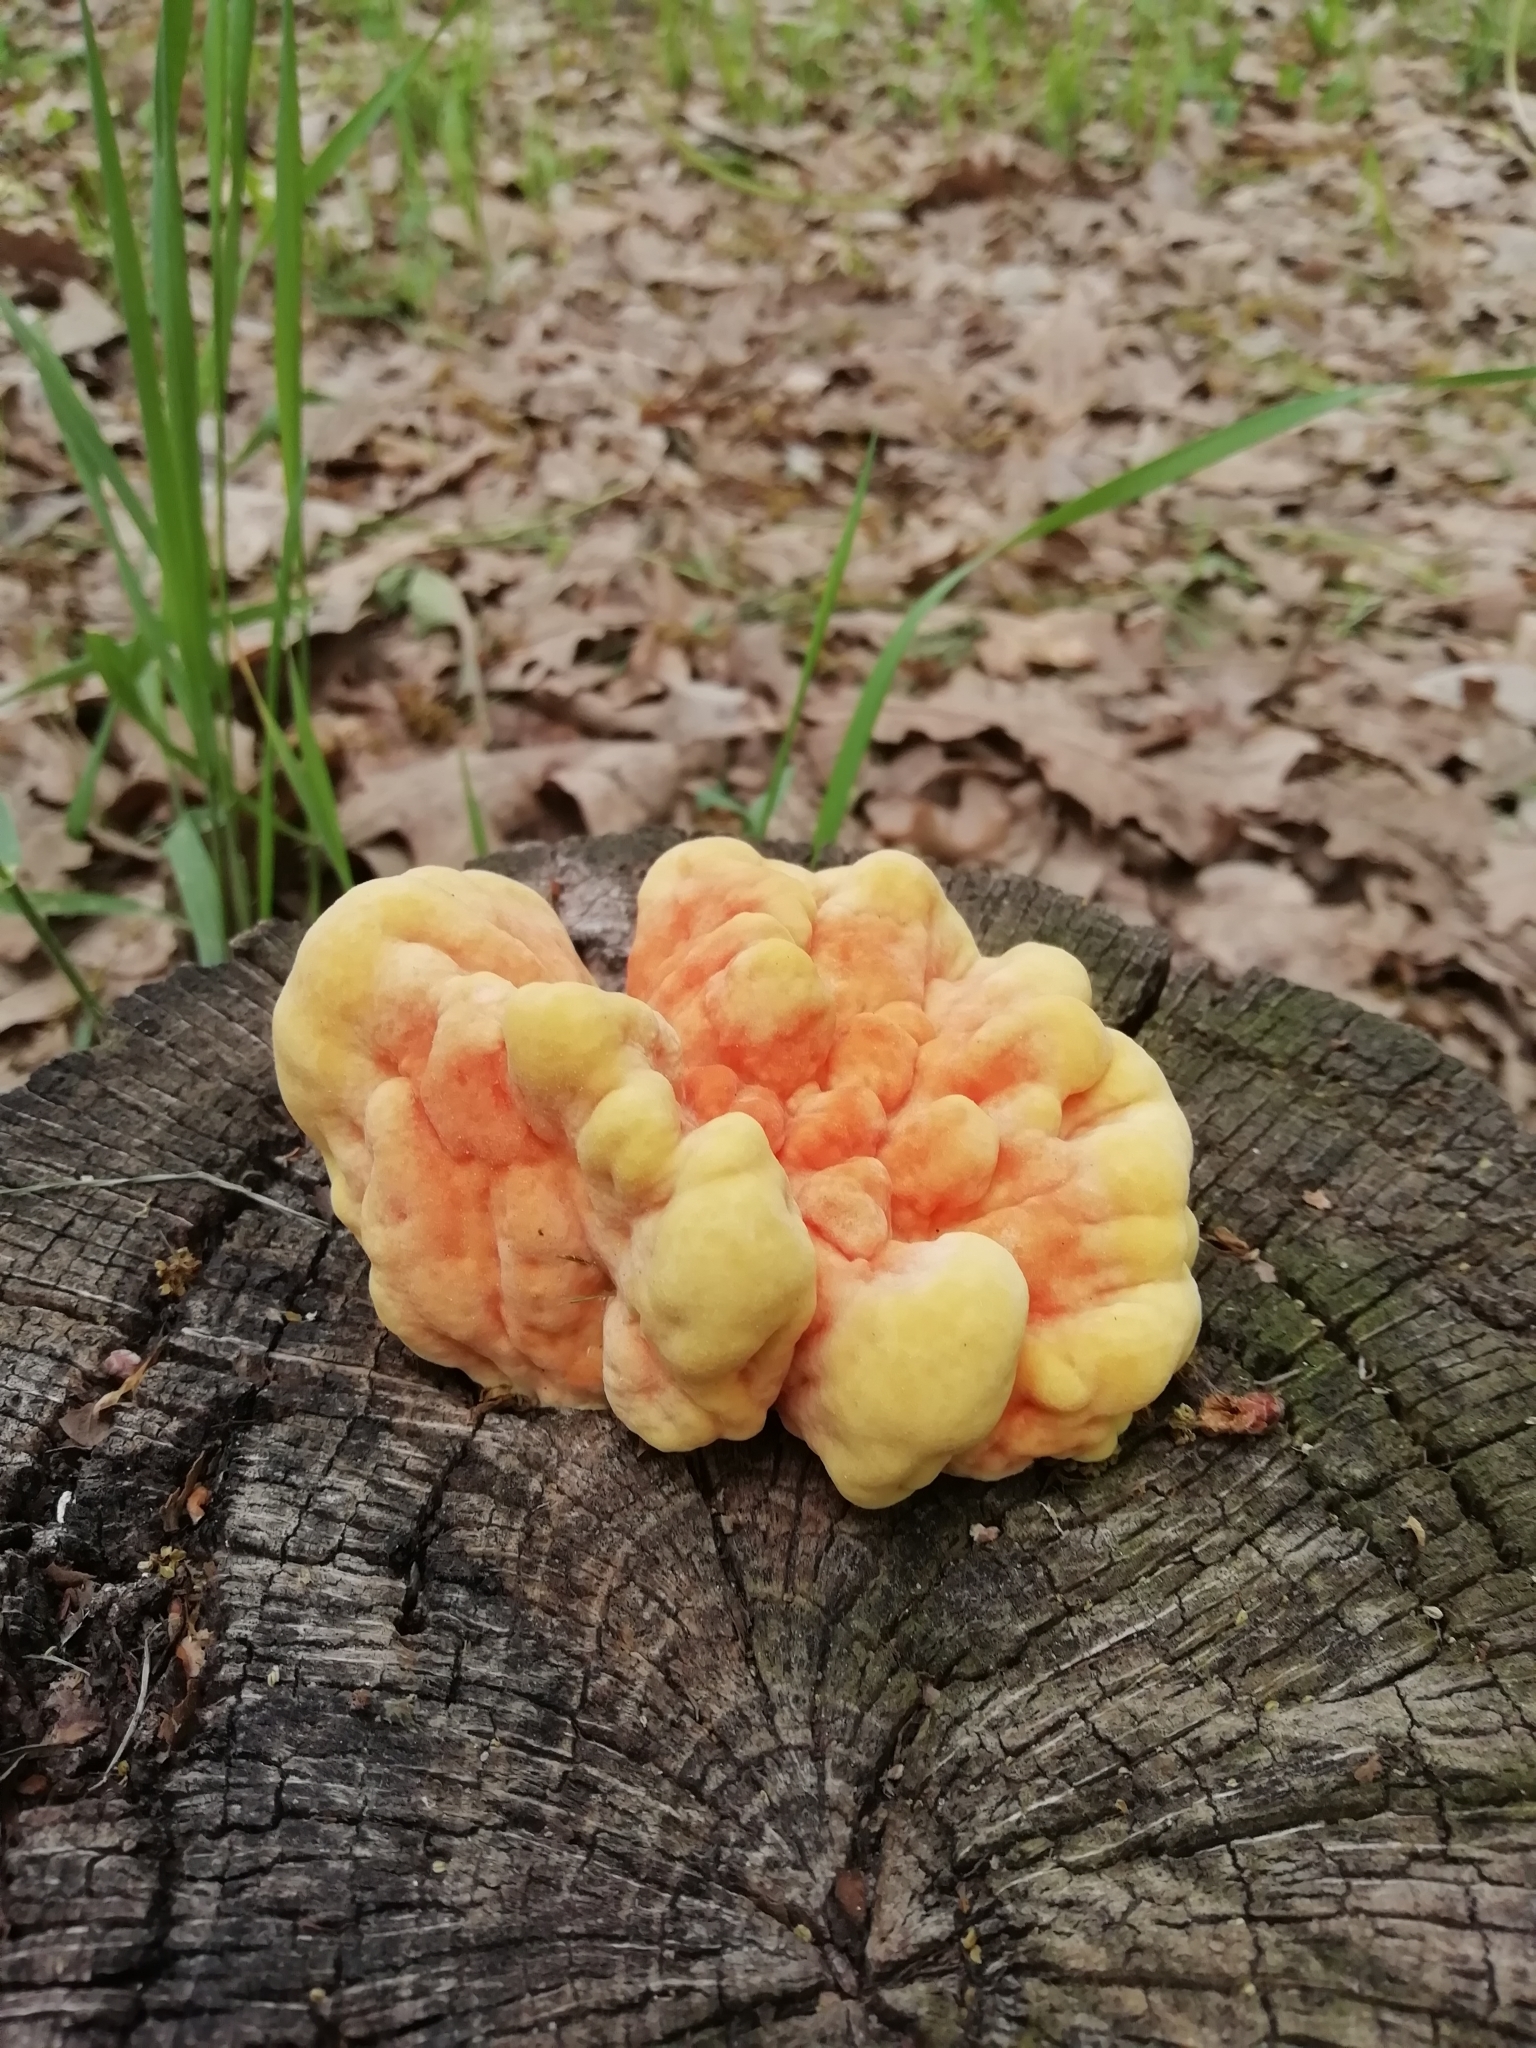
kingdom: Fungi
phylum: Basidiomycota
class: Agaricomycetes
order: Polyporales
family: Laetiporaceae
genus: Laetiporus
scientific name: Laetiporus sulphureus
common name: Chicken of the woods
